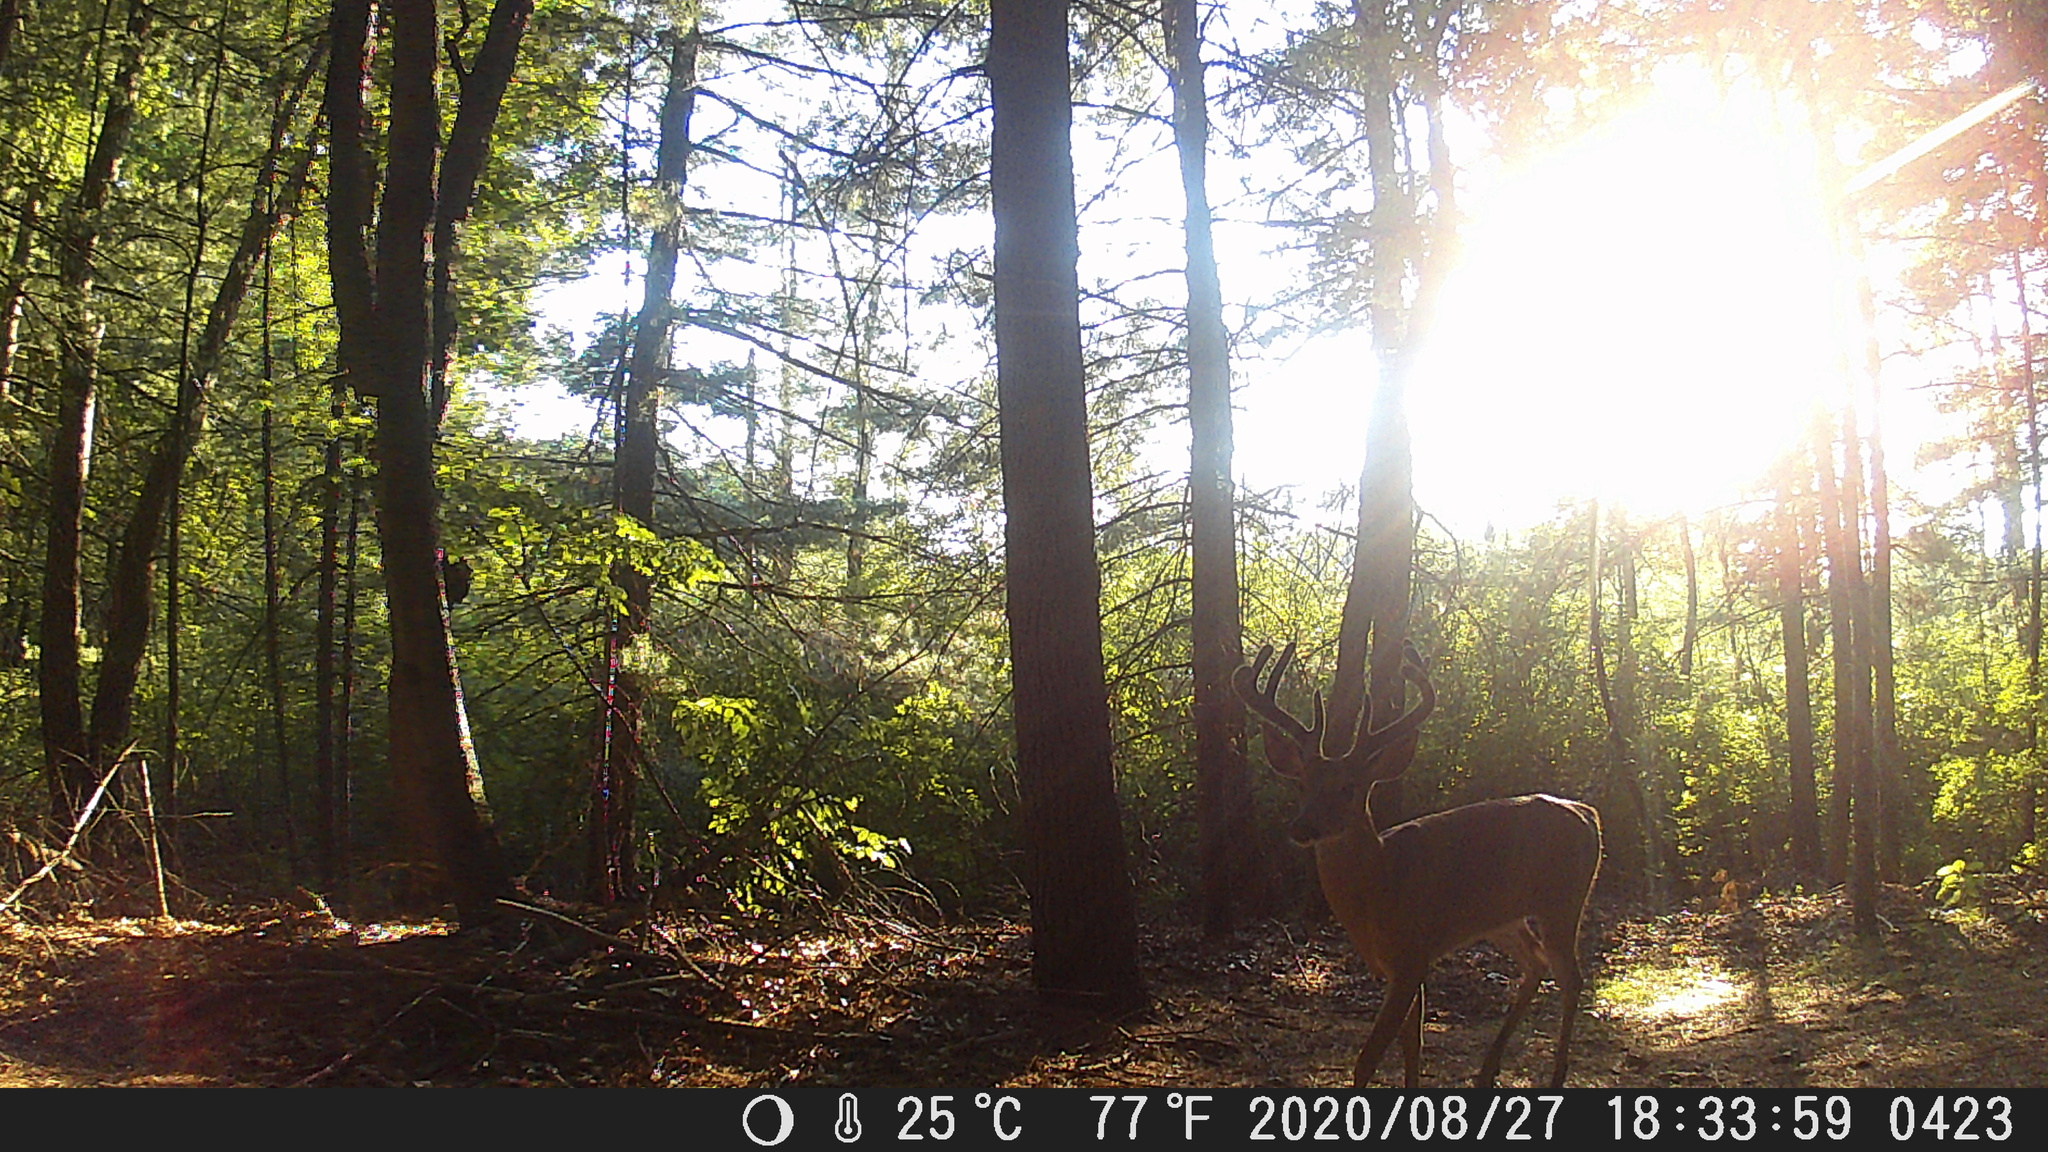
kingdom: Animalia
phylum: Chordata
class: Mammalia
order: Artiodactyla
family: Cervidae
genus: Odocoileus
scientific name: Odocoileus virginianus
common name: White-tailed deer
